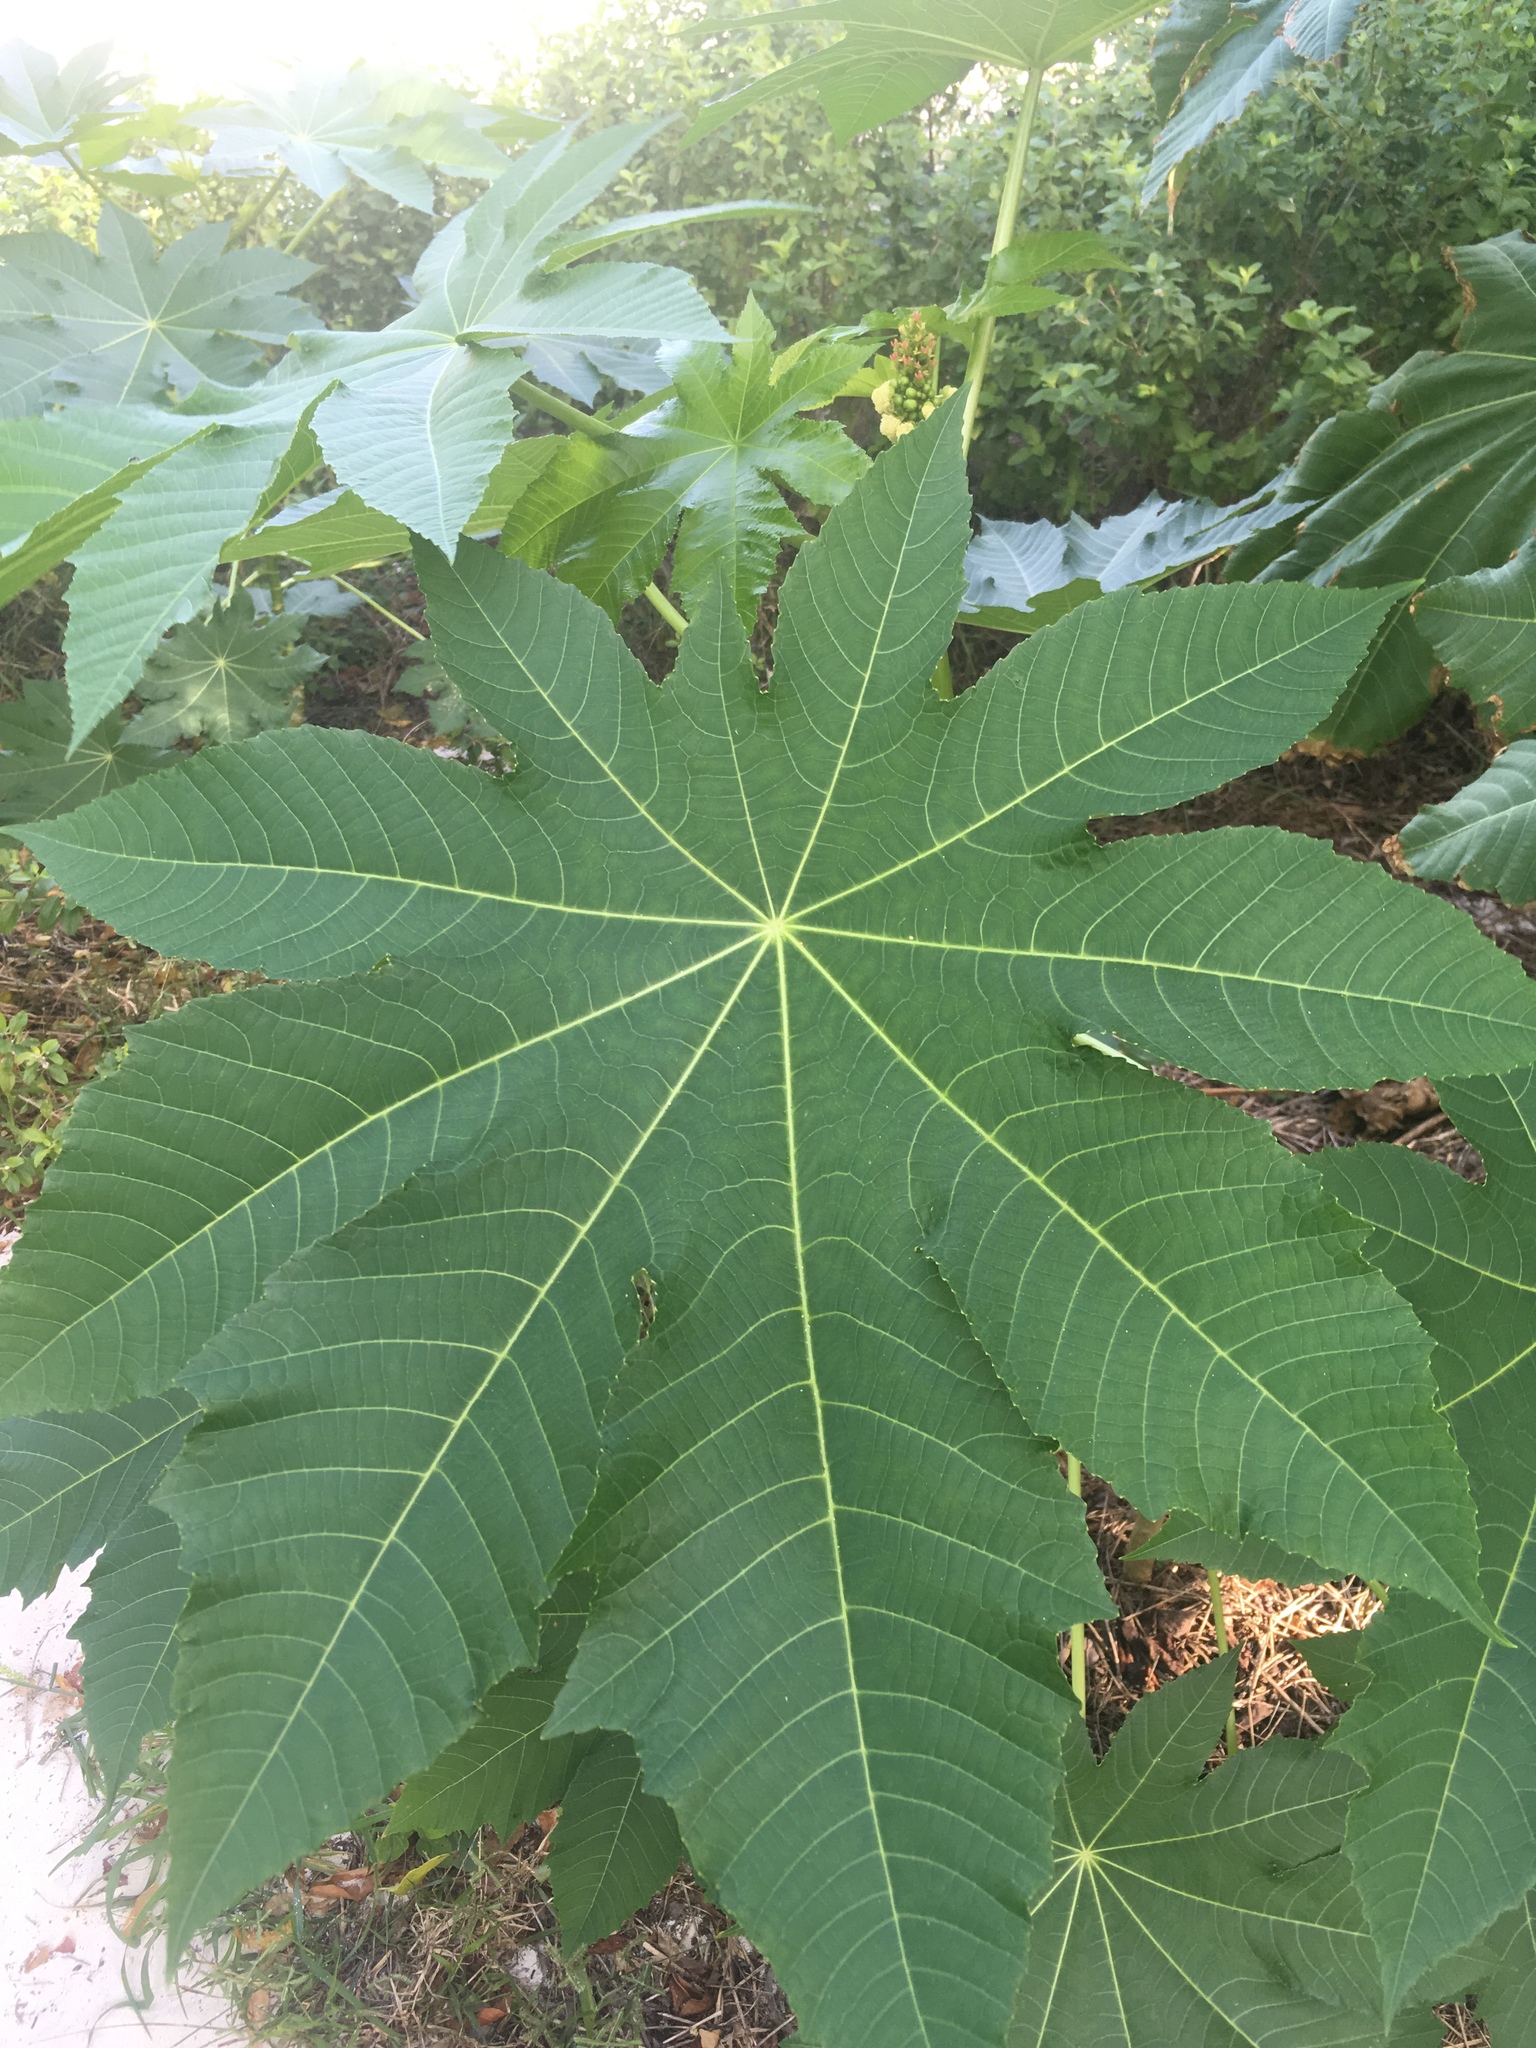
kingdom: Plantae
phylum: Tracheophyta
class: Magnoliopsida
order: Malpighiales
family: Euphorbiaceae
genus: Ricinus
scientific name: Ricinus communis
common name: Castor-oil-plant
